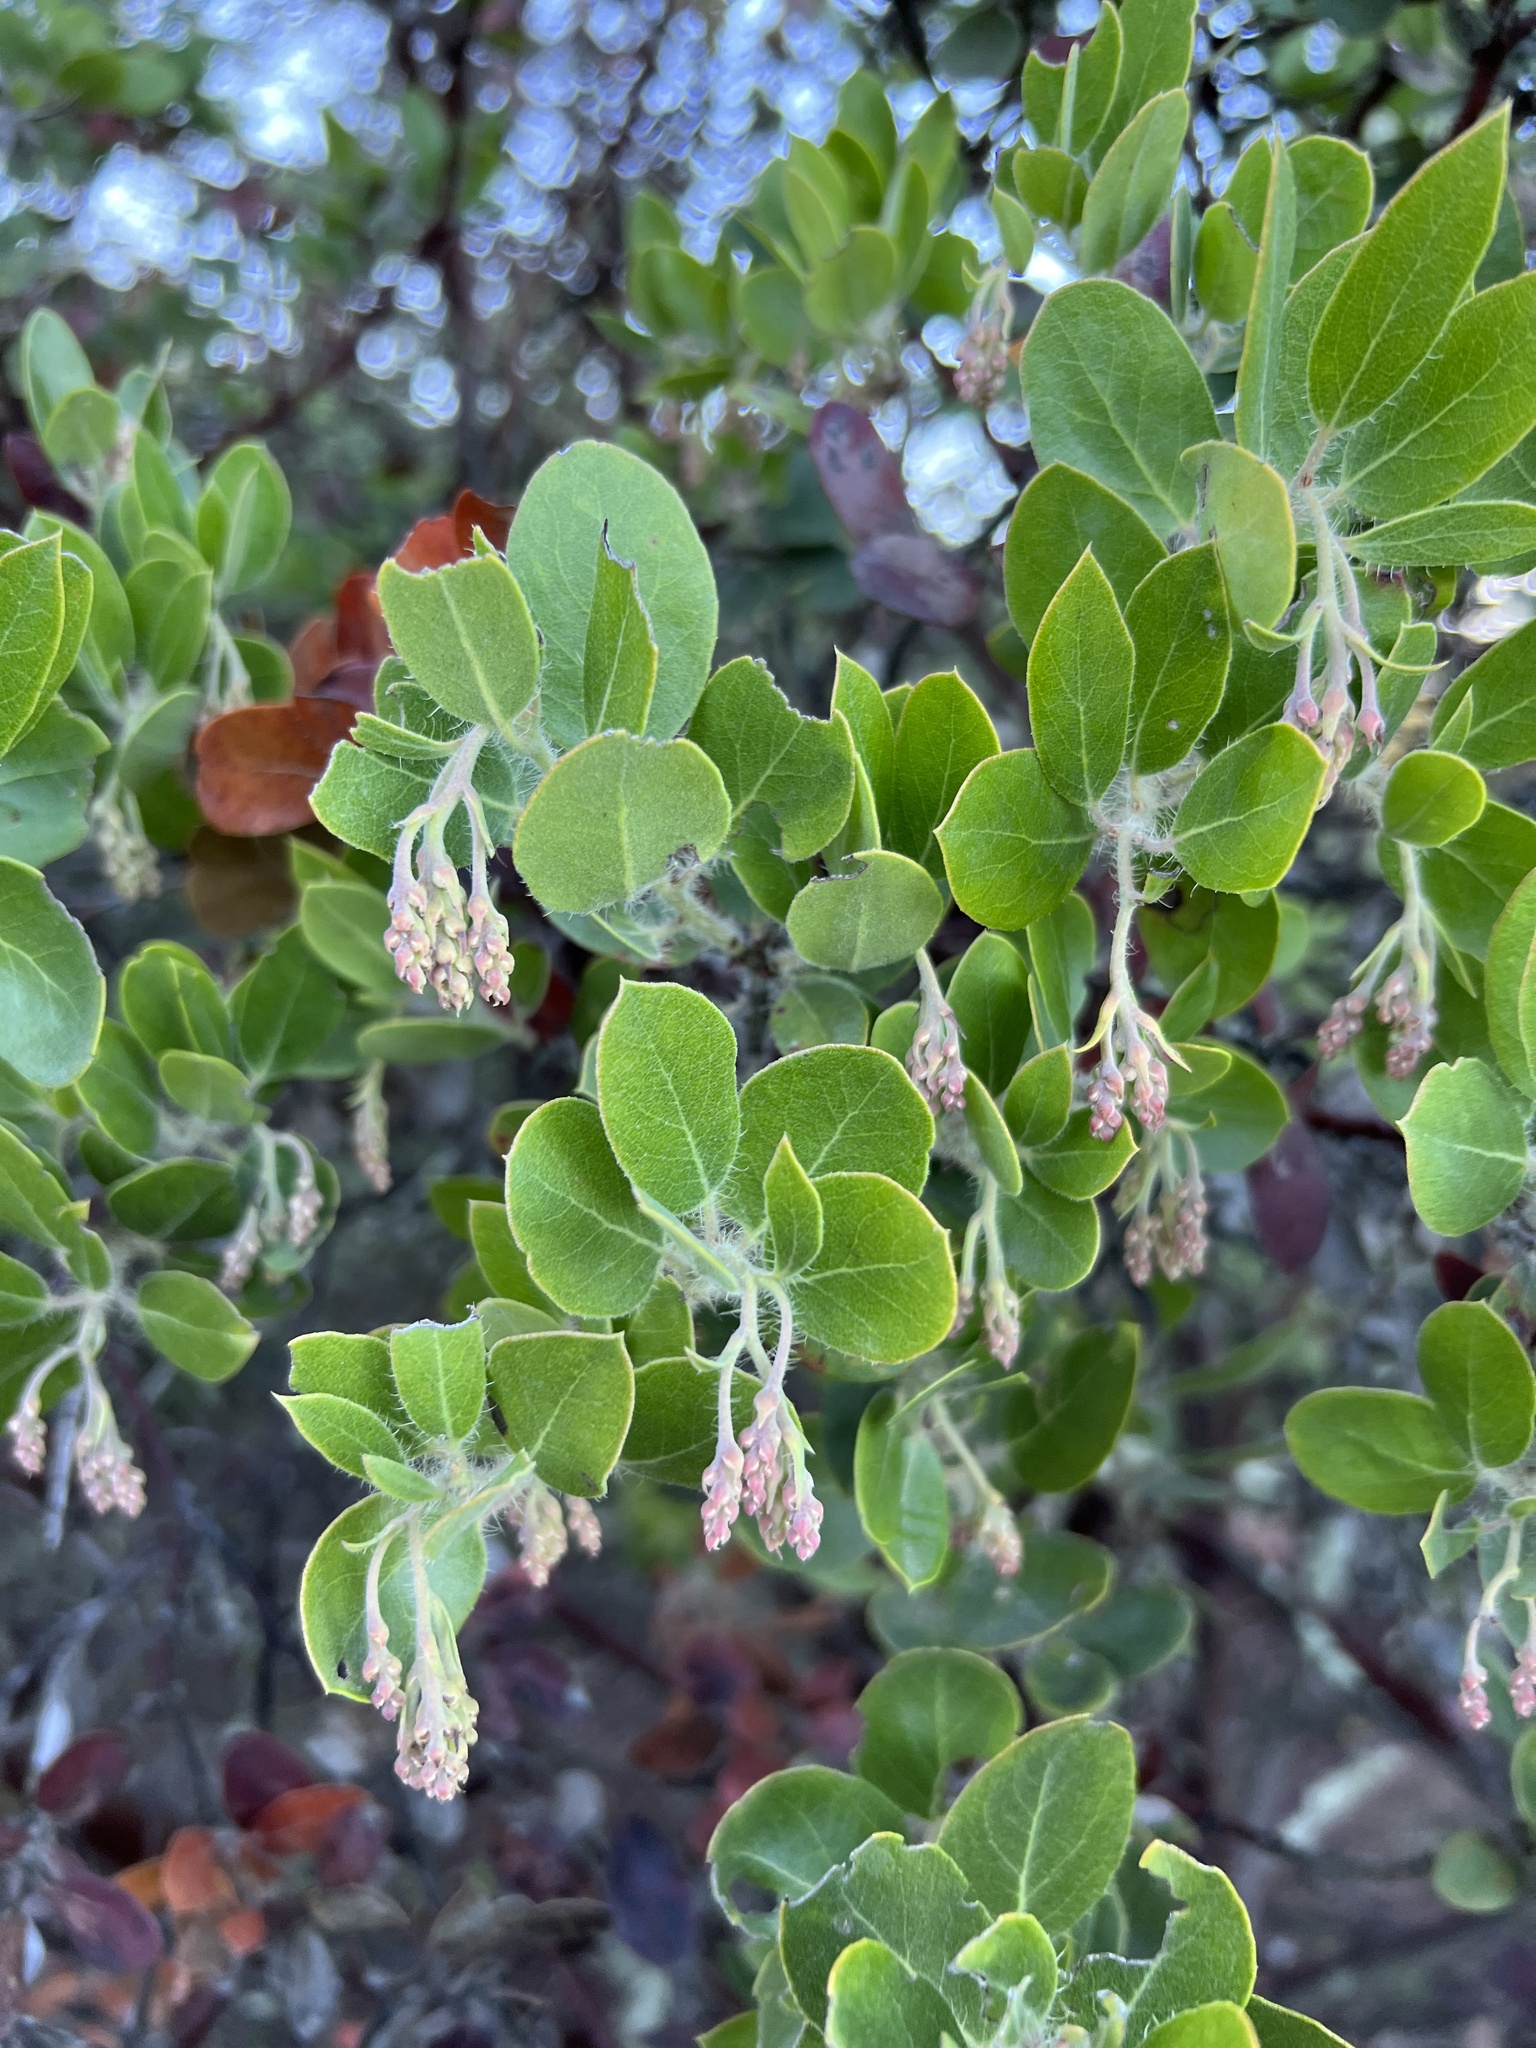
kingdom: Plantae
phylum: Tracheophyta
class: Magnoliopsida
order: Ericales
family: Ericaceae
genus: Arctostaphylos
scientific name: Arctostaphylos crustacea
